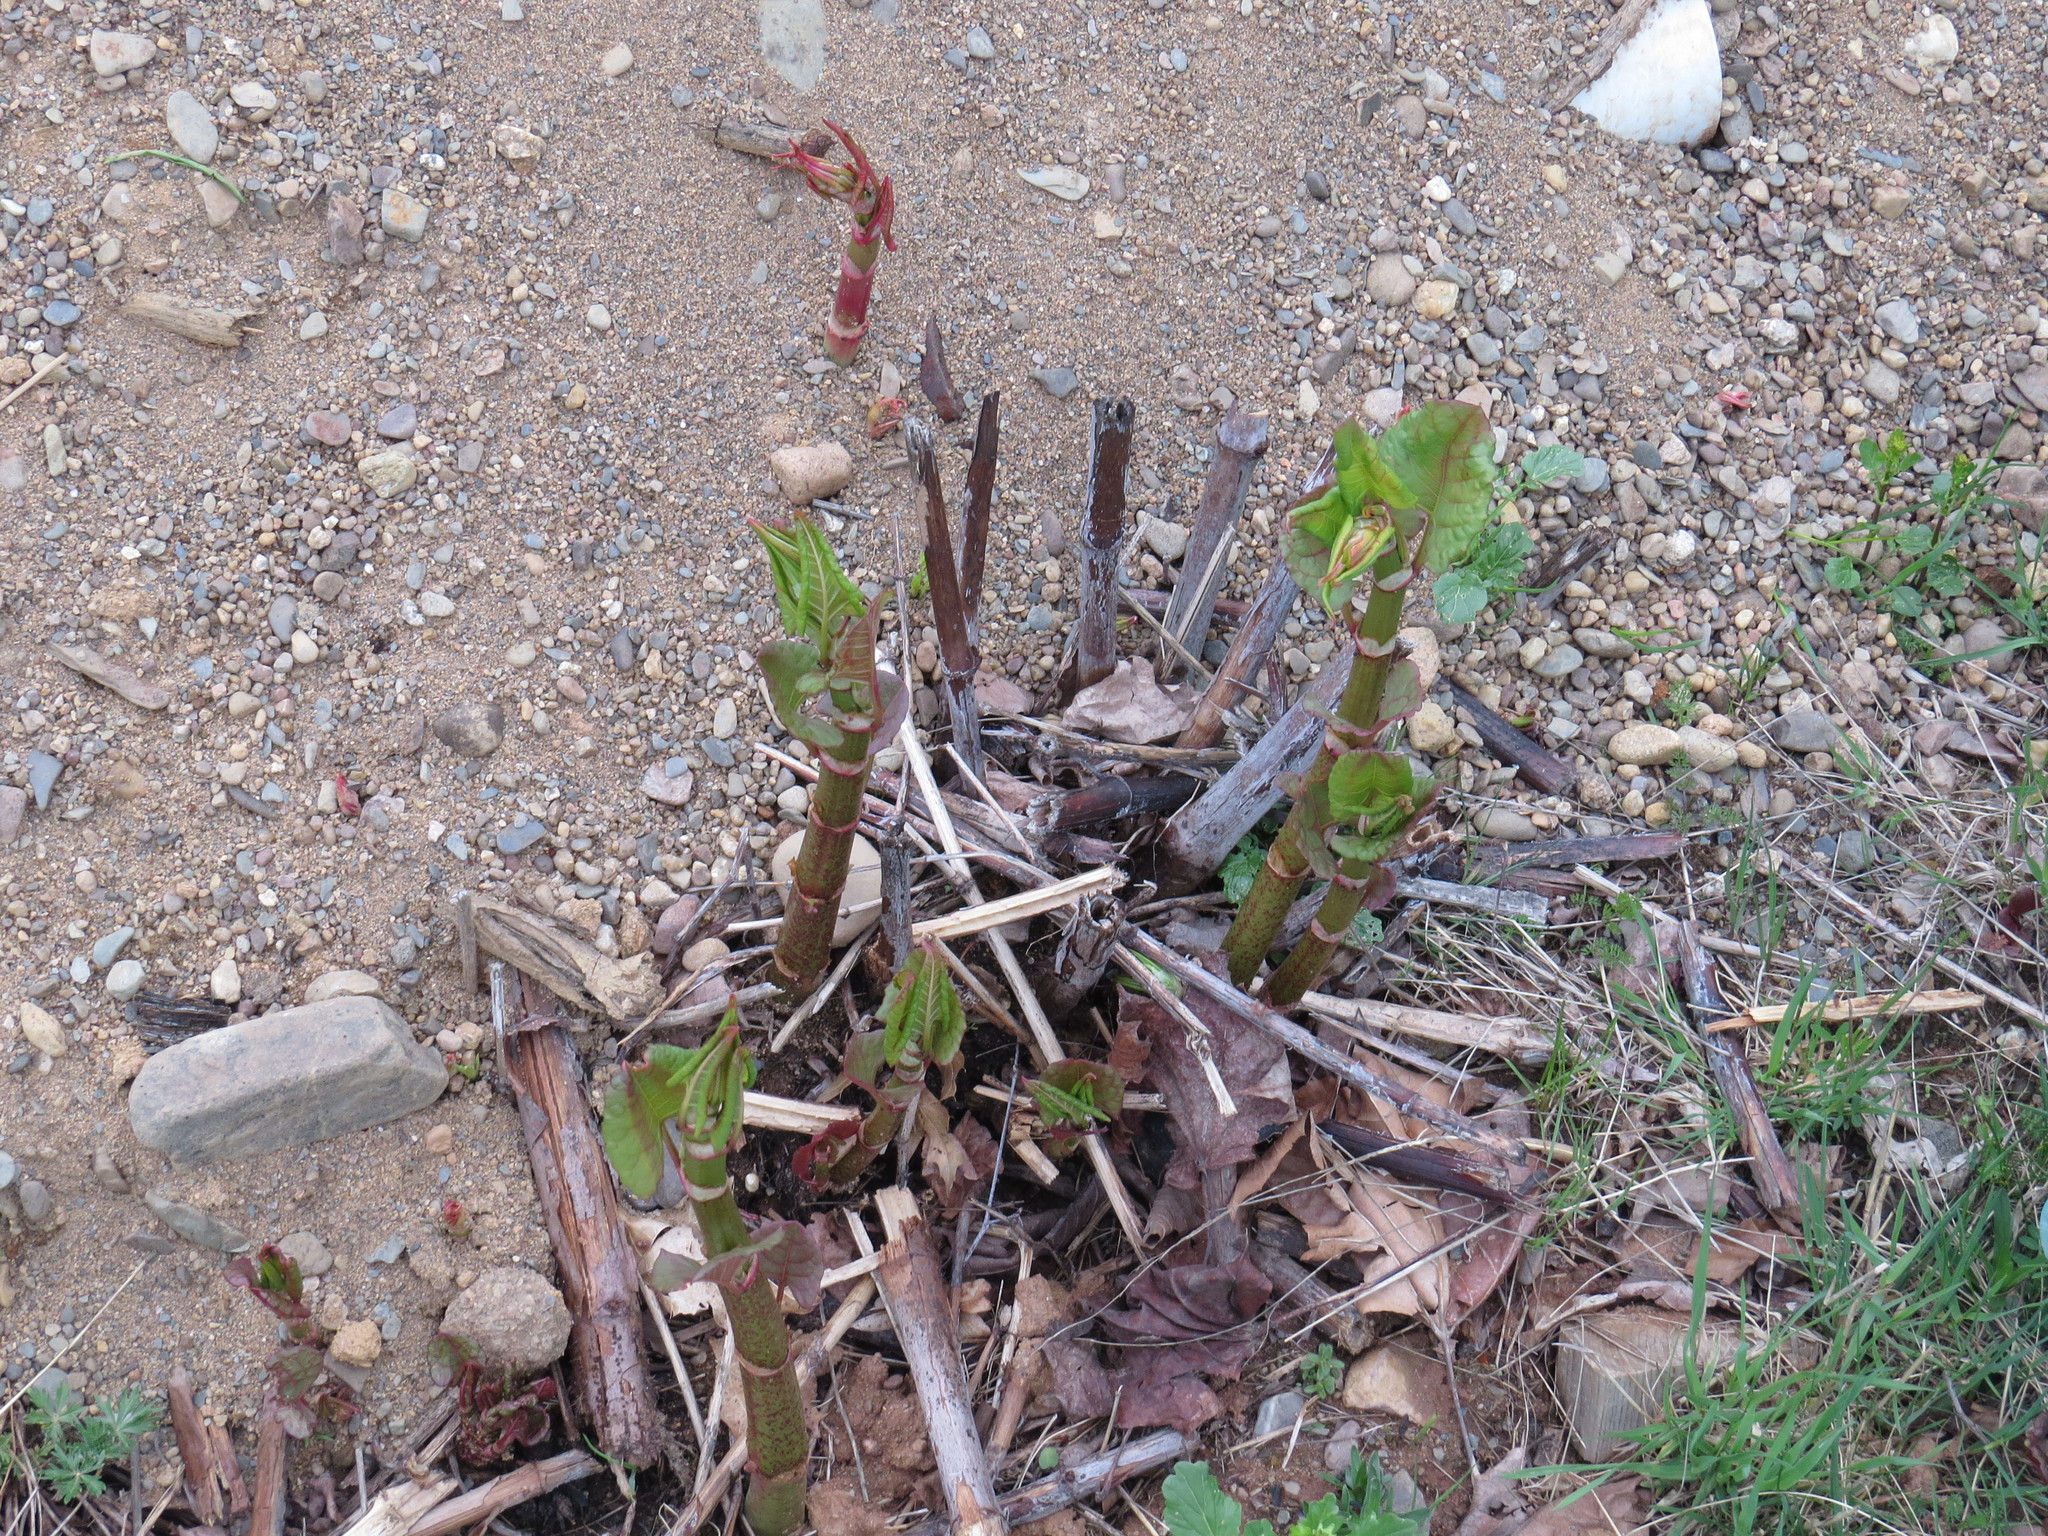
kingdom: Plantae
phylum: Tracheophyta
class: Magnoliopsida
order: Caryophyllales
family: Polygonaceae
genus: Reynoutria
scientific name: Reynoutria japonica
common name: Japanese knotweed
